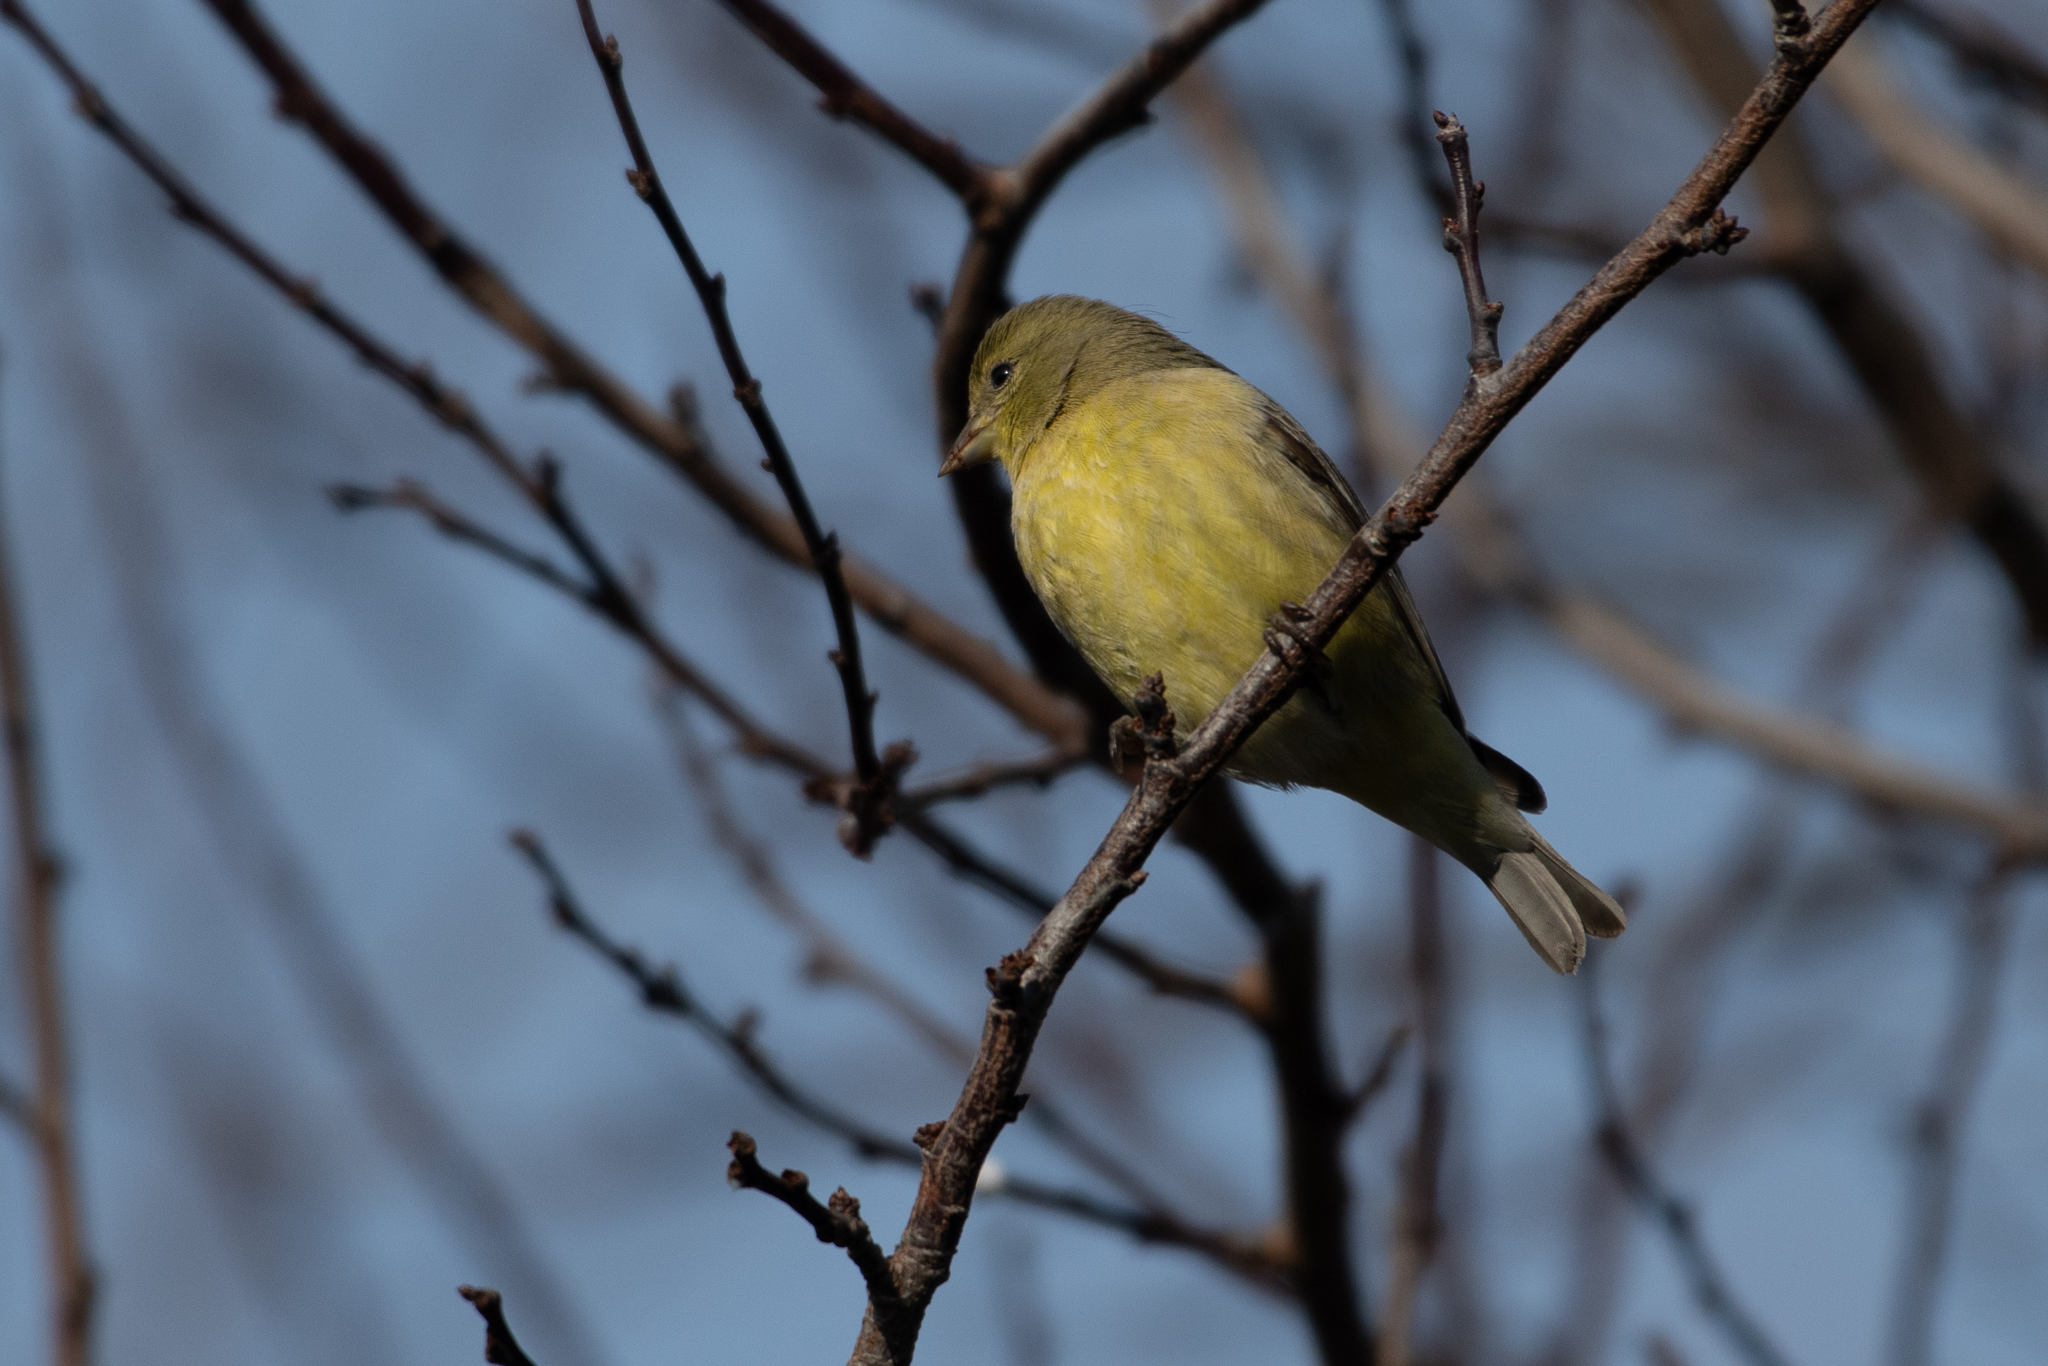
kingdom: Animalia
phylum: Chordata
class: Aves
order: Passeriformes
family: Fringillidae
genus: Spinus
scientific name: Spinus psaltria
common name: Lesser goldfinch
